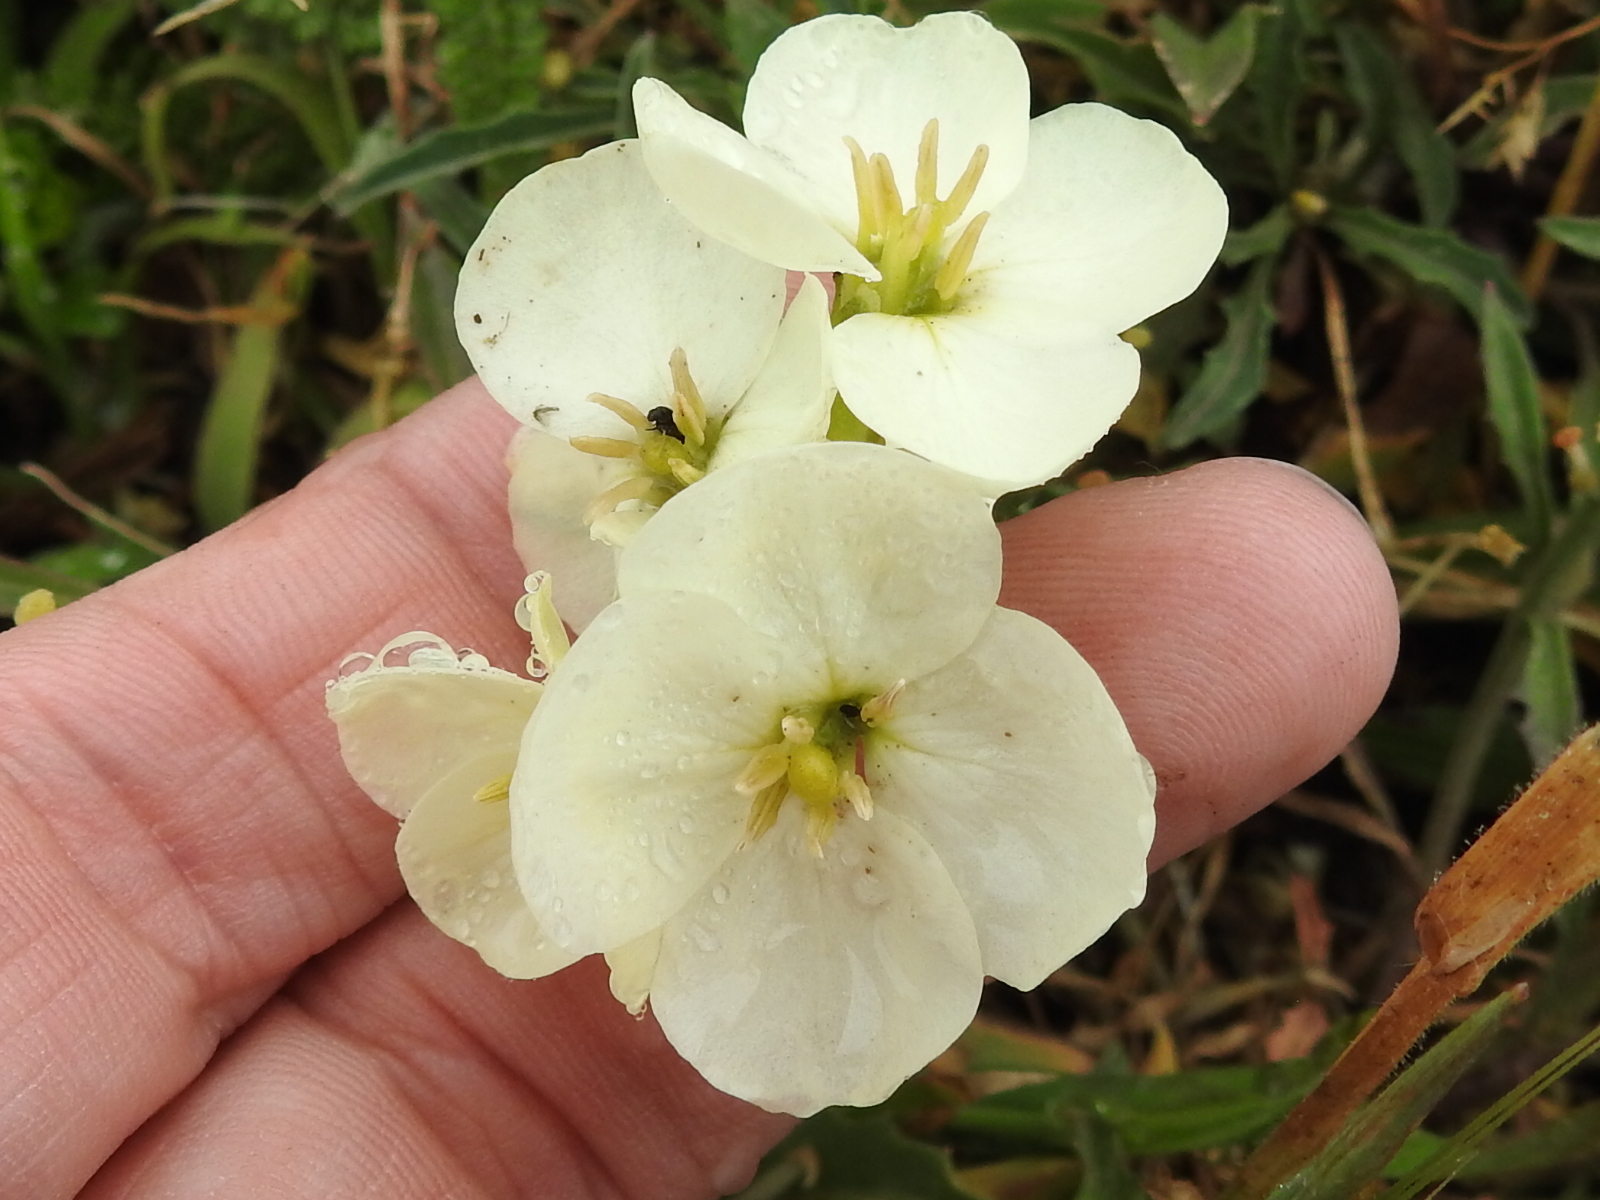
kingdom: Plantae
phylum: Tracheophyta
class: Magnoliopsida
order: Brassicales
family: Brassicaceae
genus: Erysimum
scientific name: Erysimum concinnum
